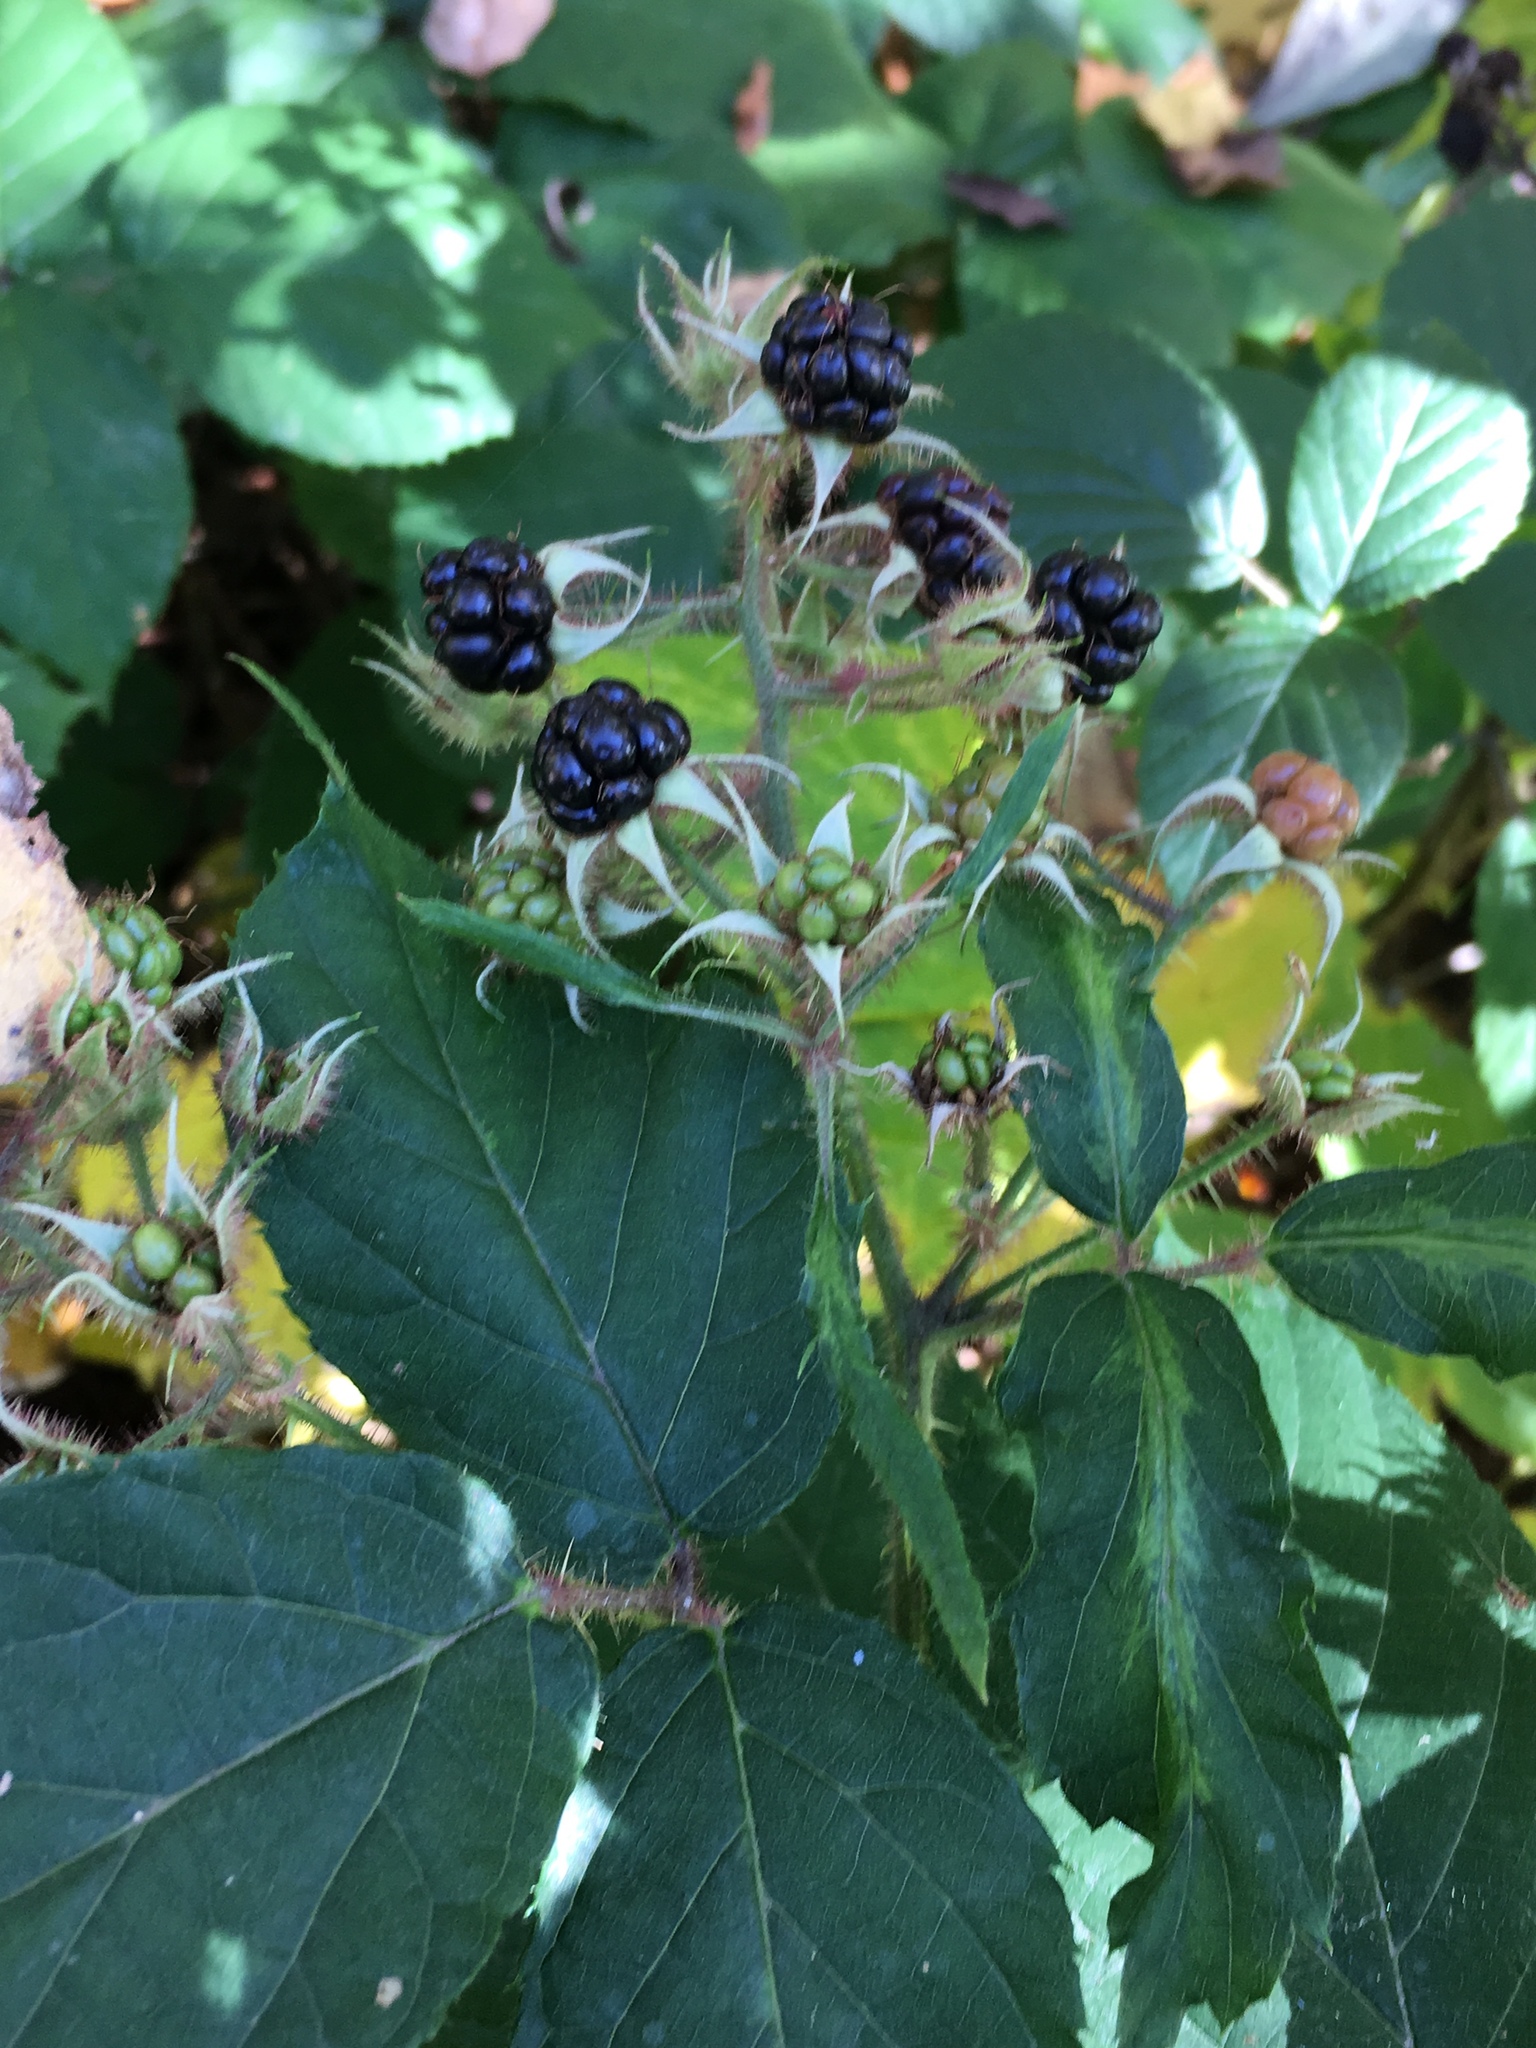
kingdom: Plantae
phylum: Tracheophyta
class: Magnoliopsida
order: Rosales
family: Rosaceae
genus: Rubus
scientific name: Rubus caesius
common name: Dewberry
